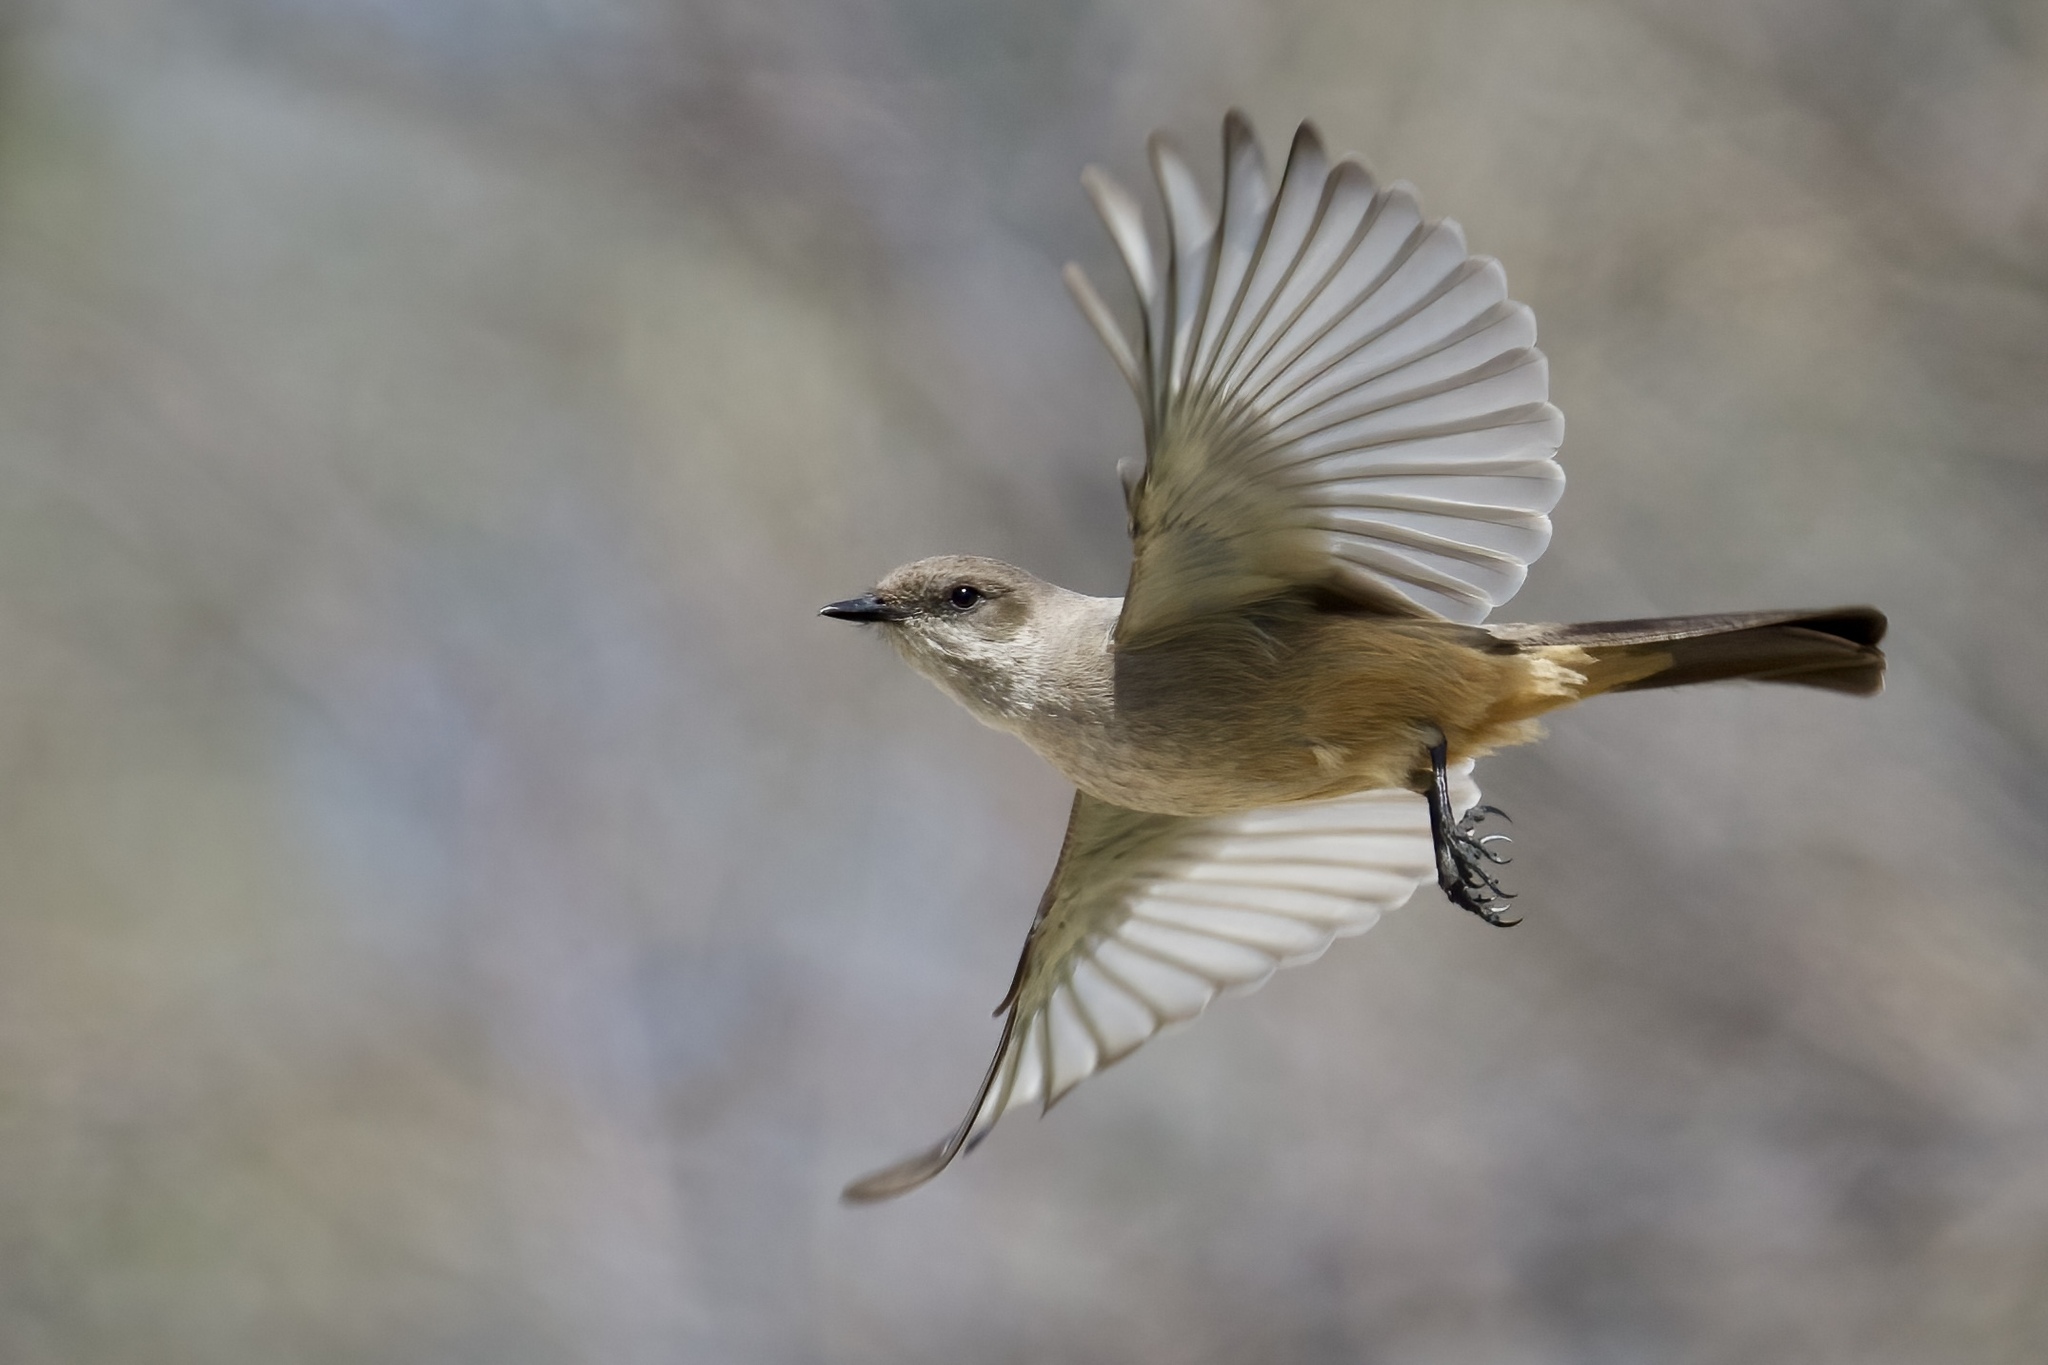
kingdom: Animalia
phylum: Chordata
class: Aves
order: Passeriformes
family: Tyrannidae
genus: Sayornis
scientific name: Sayornis saya
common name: Say's phoebe
